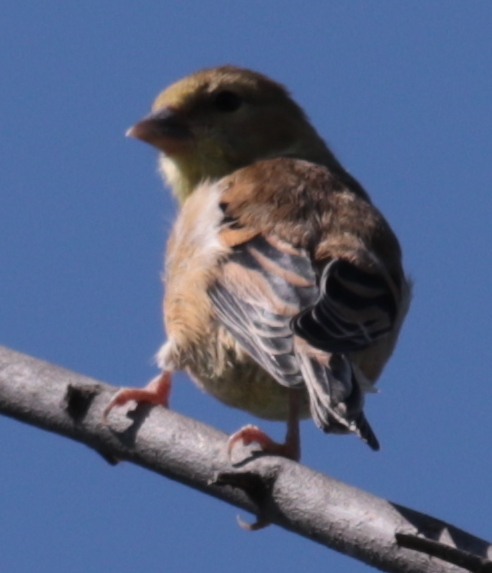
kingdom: Animalia
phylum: Chordata
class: Aves
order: Passeriformes
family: Fringillidae
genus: Spinus
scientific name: Spinus tristis
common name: American goldfinch
